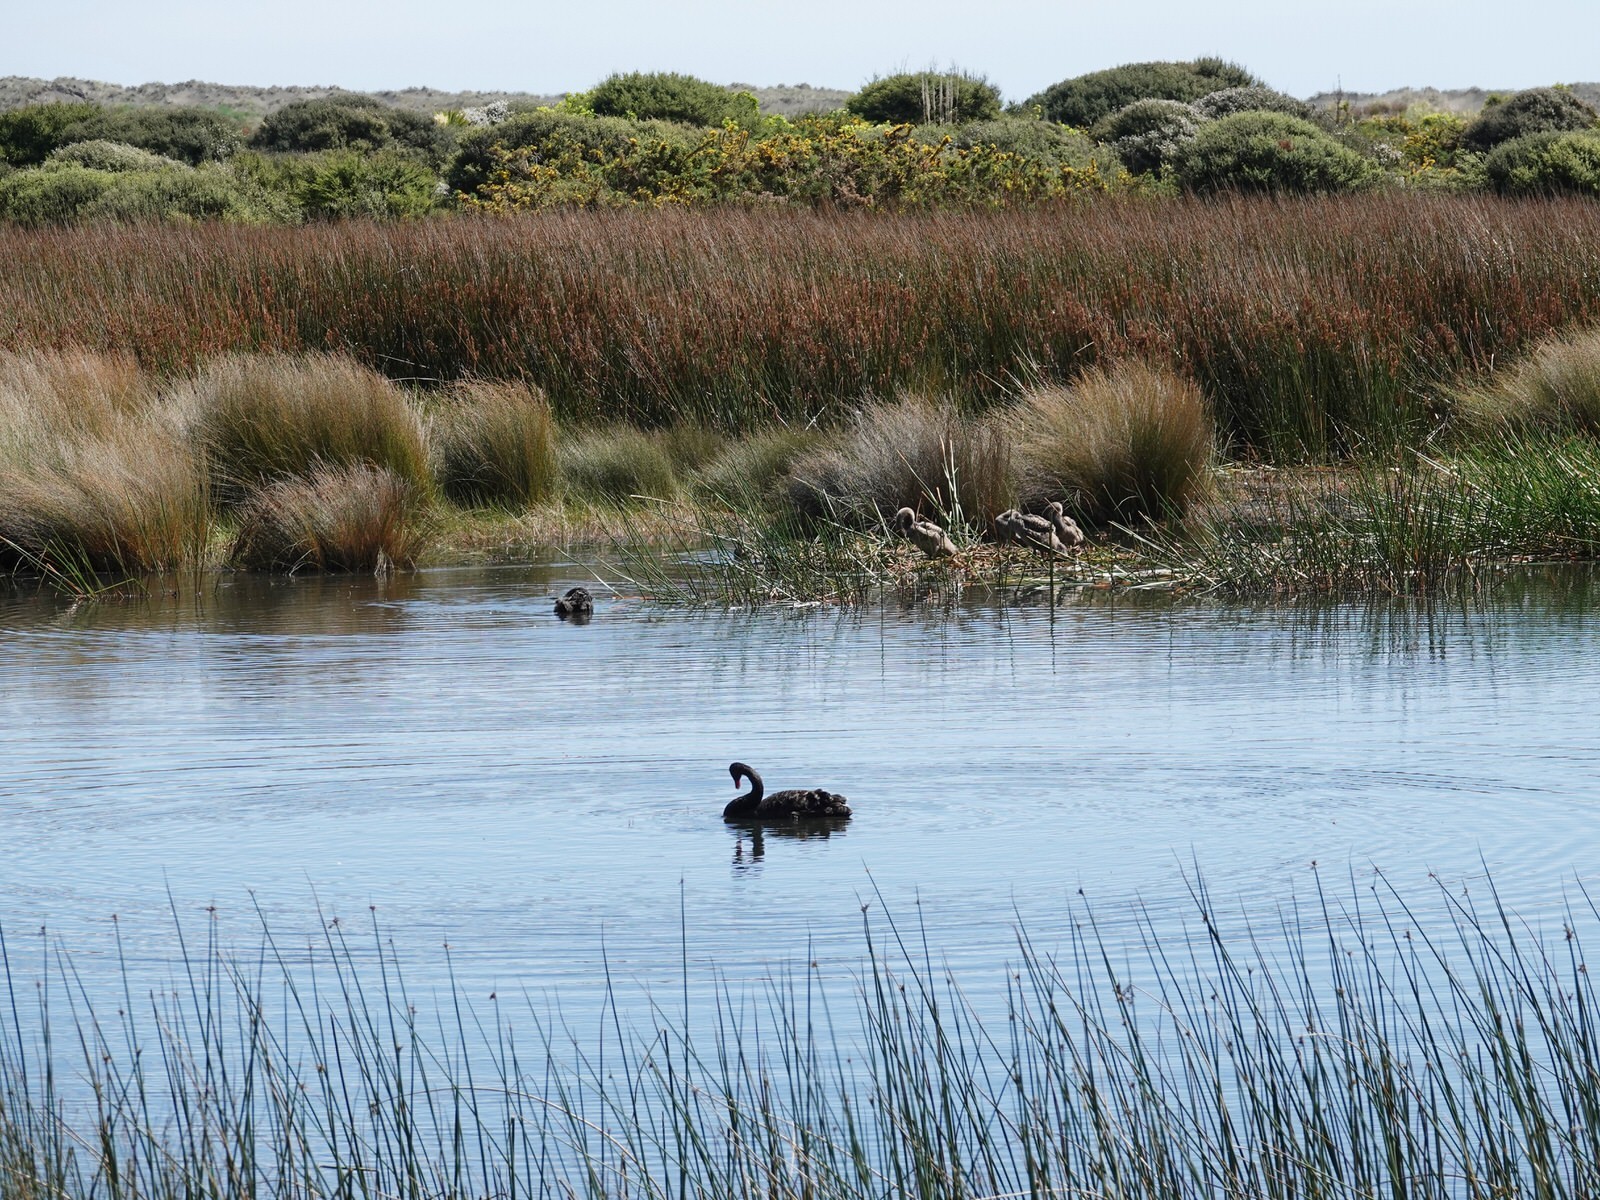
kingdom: Animalia
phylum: Chordata
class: Aves
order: Anseriformes
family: Anatidae
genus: Cygnus
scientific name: Cygnus atratus
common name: Black swan
